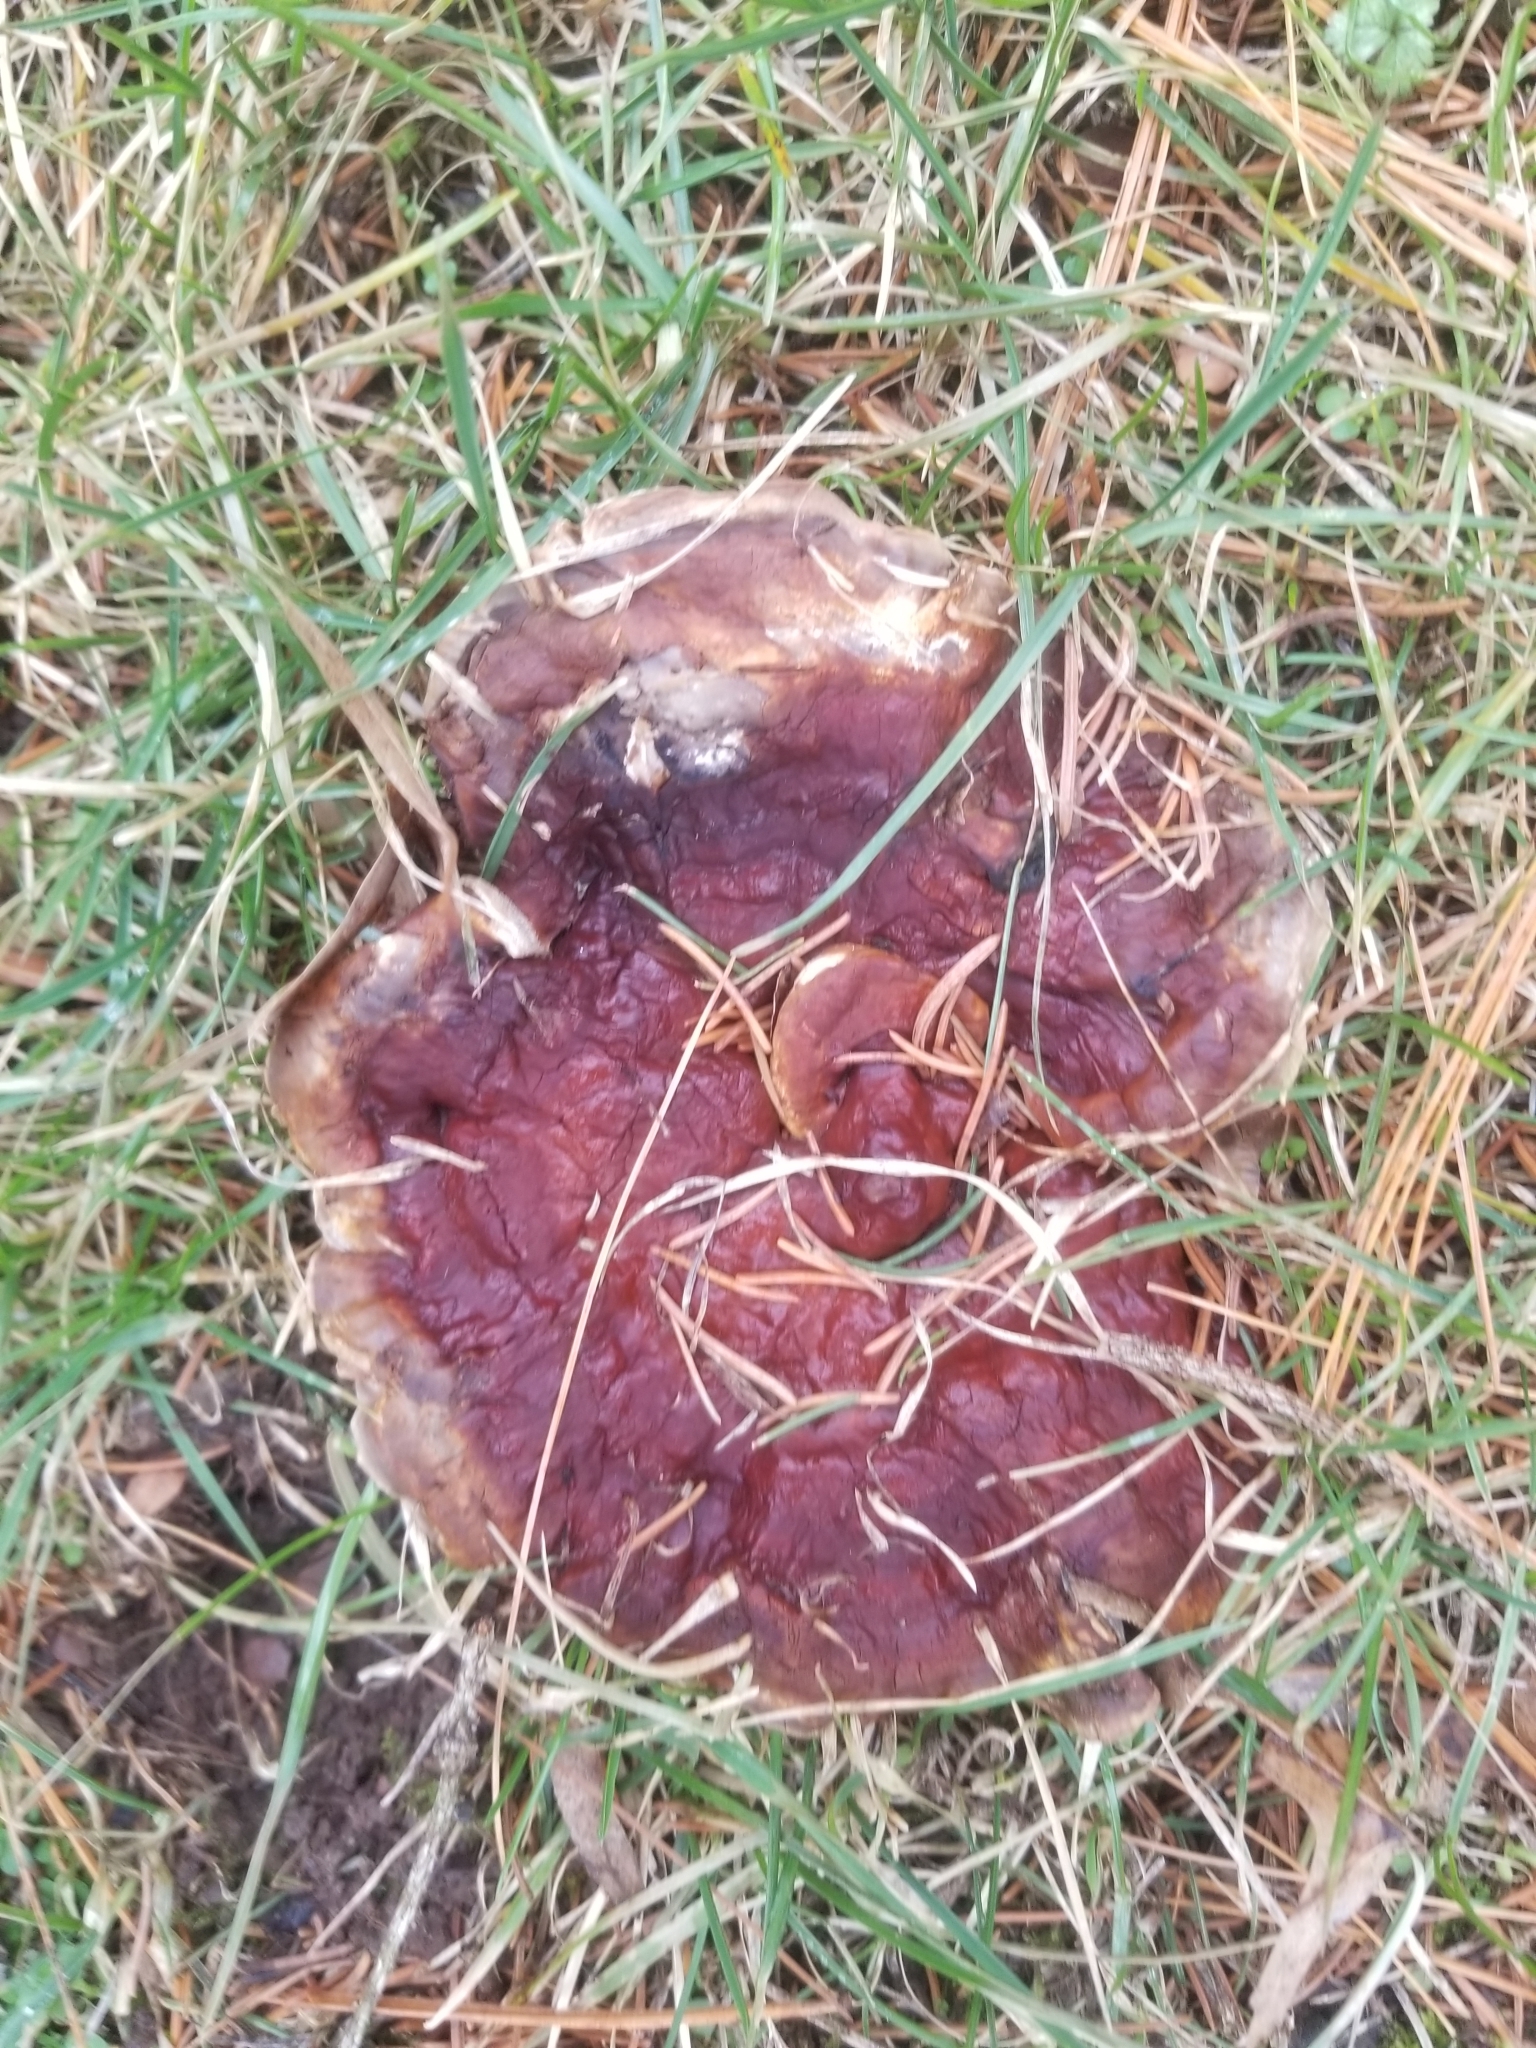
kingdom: Fungi
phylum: Basidiomycota
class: Agaricomycetes
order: Polyporales
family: Polyporaceae
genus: Ganoderma
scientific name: Ganoderma resinaceum
